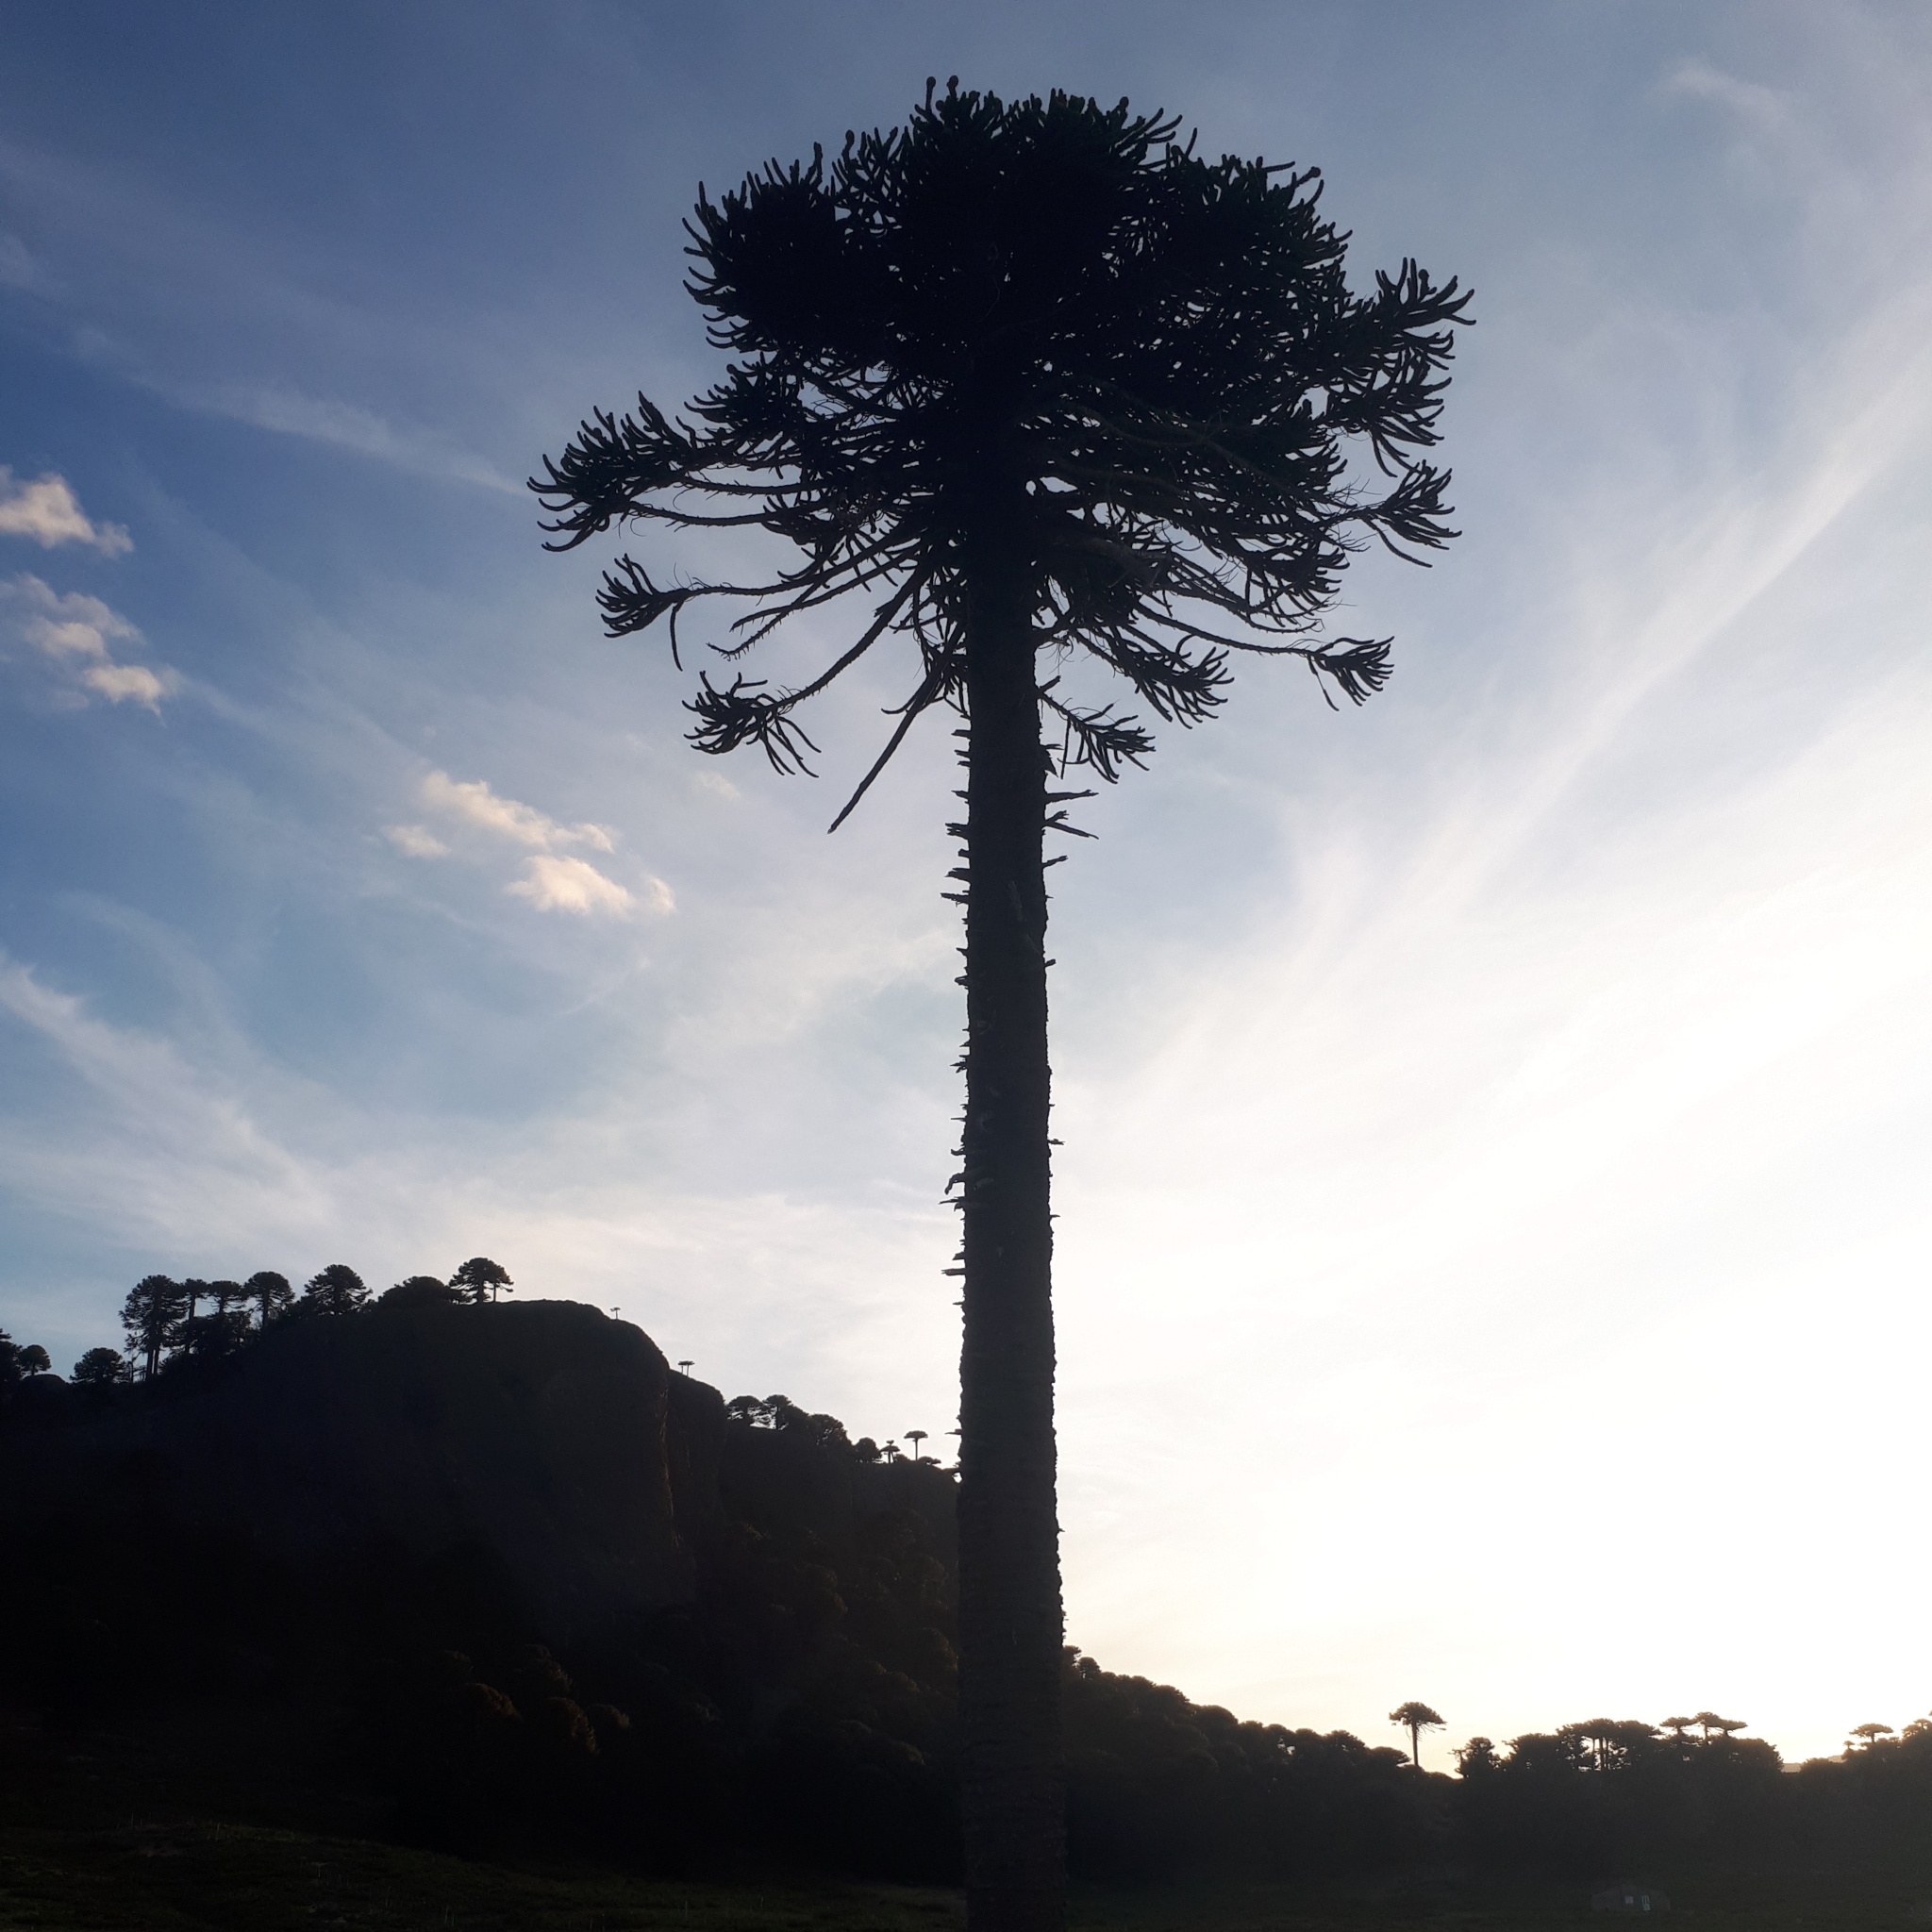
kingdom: Plantae
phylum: Tracheophyta
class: Pinopsida
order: Pinales
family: Araucariaceae
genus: Araucaria
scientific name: Araucaria araucana
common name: Monkey-puzzle
